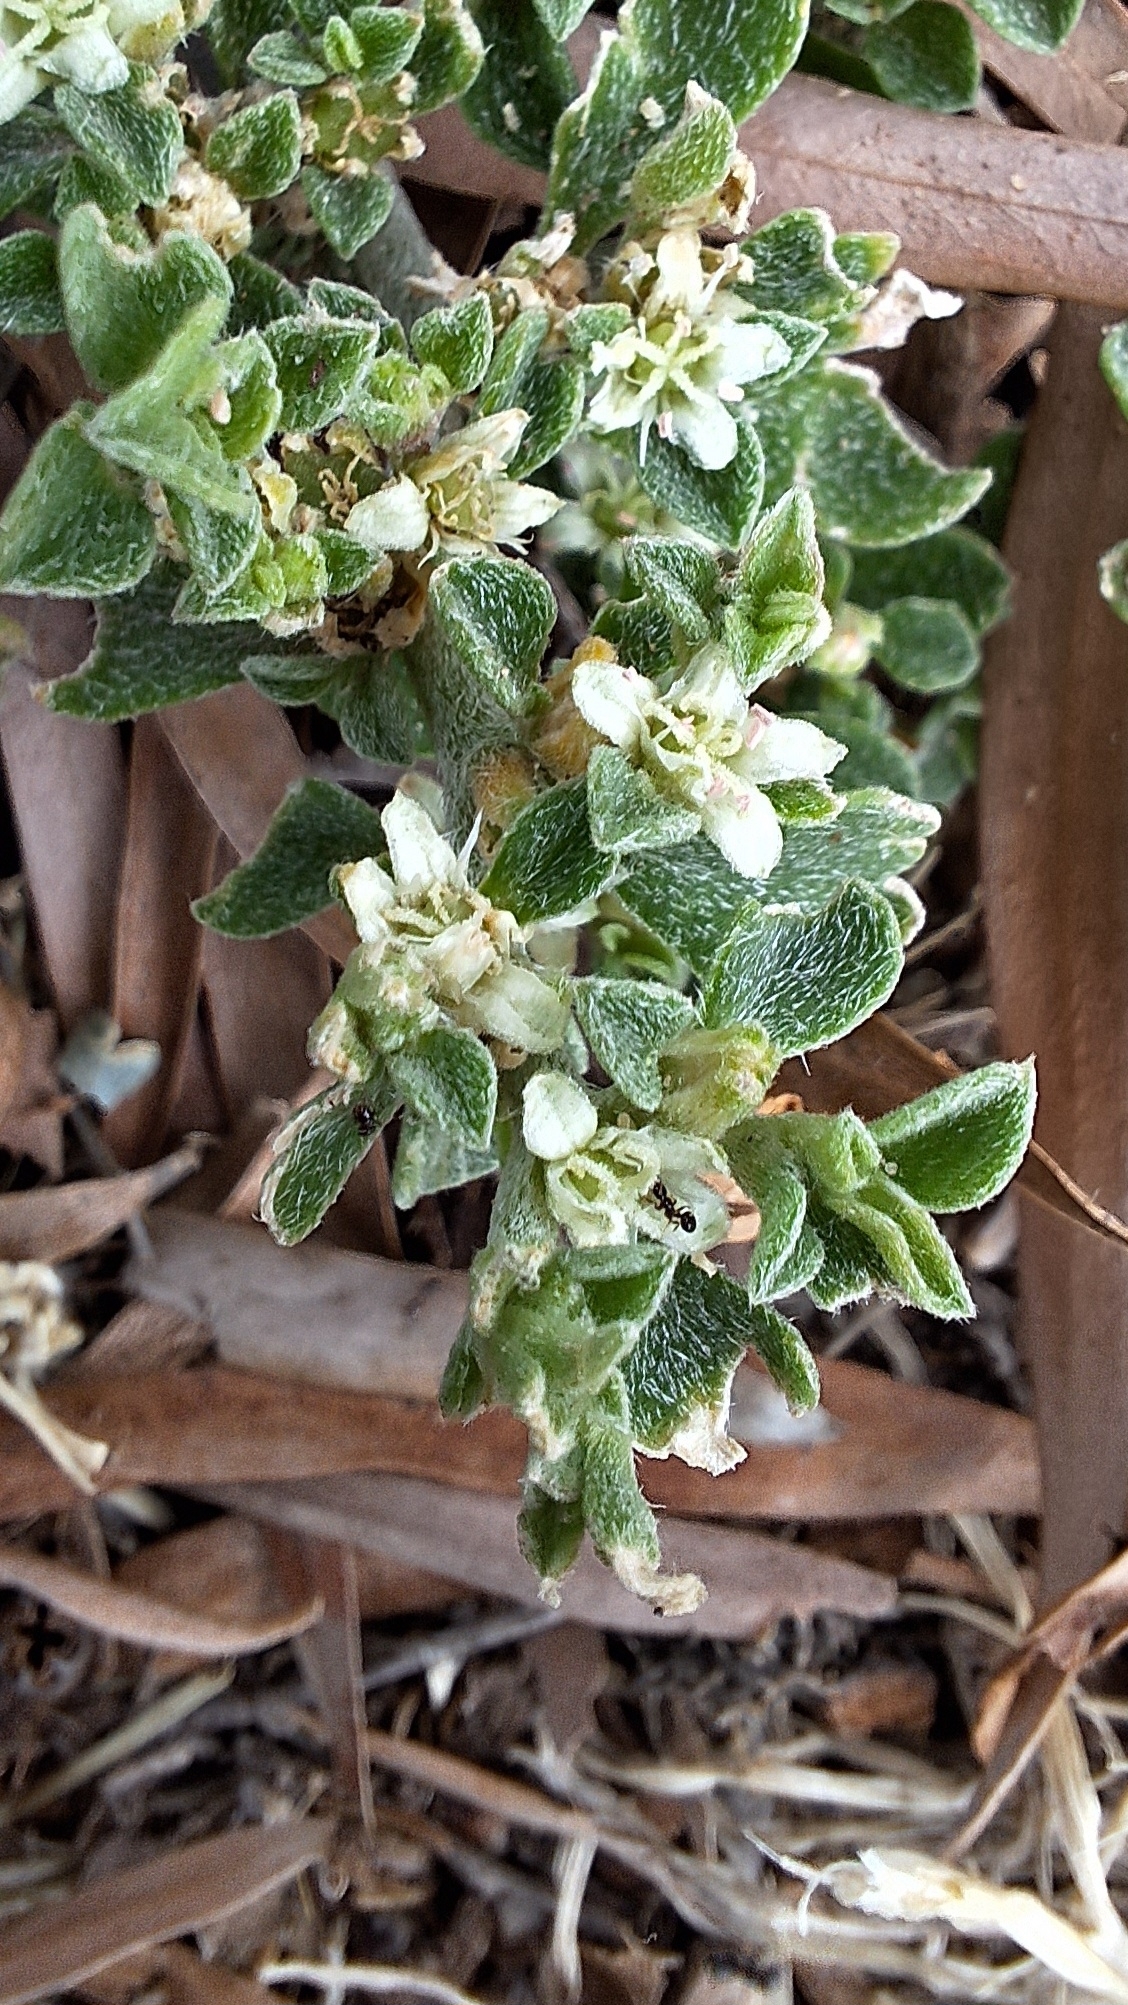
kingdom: Plantae
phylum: Tracheophyta
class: Magnoliopsida
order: Caryophyllales
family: Aizoaceae
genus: Aizoon
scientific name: Aizoon pubescens
